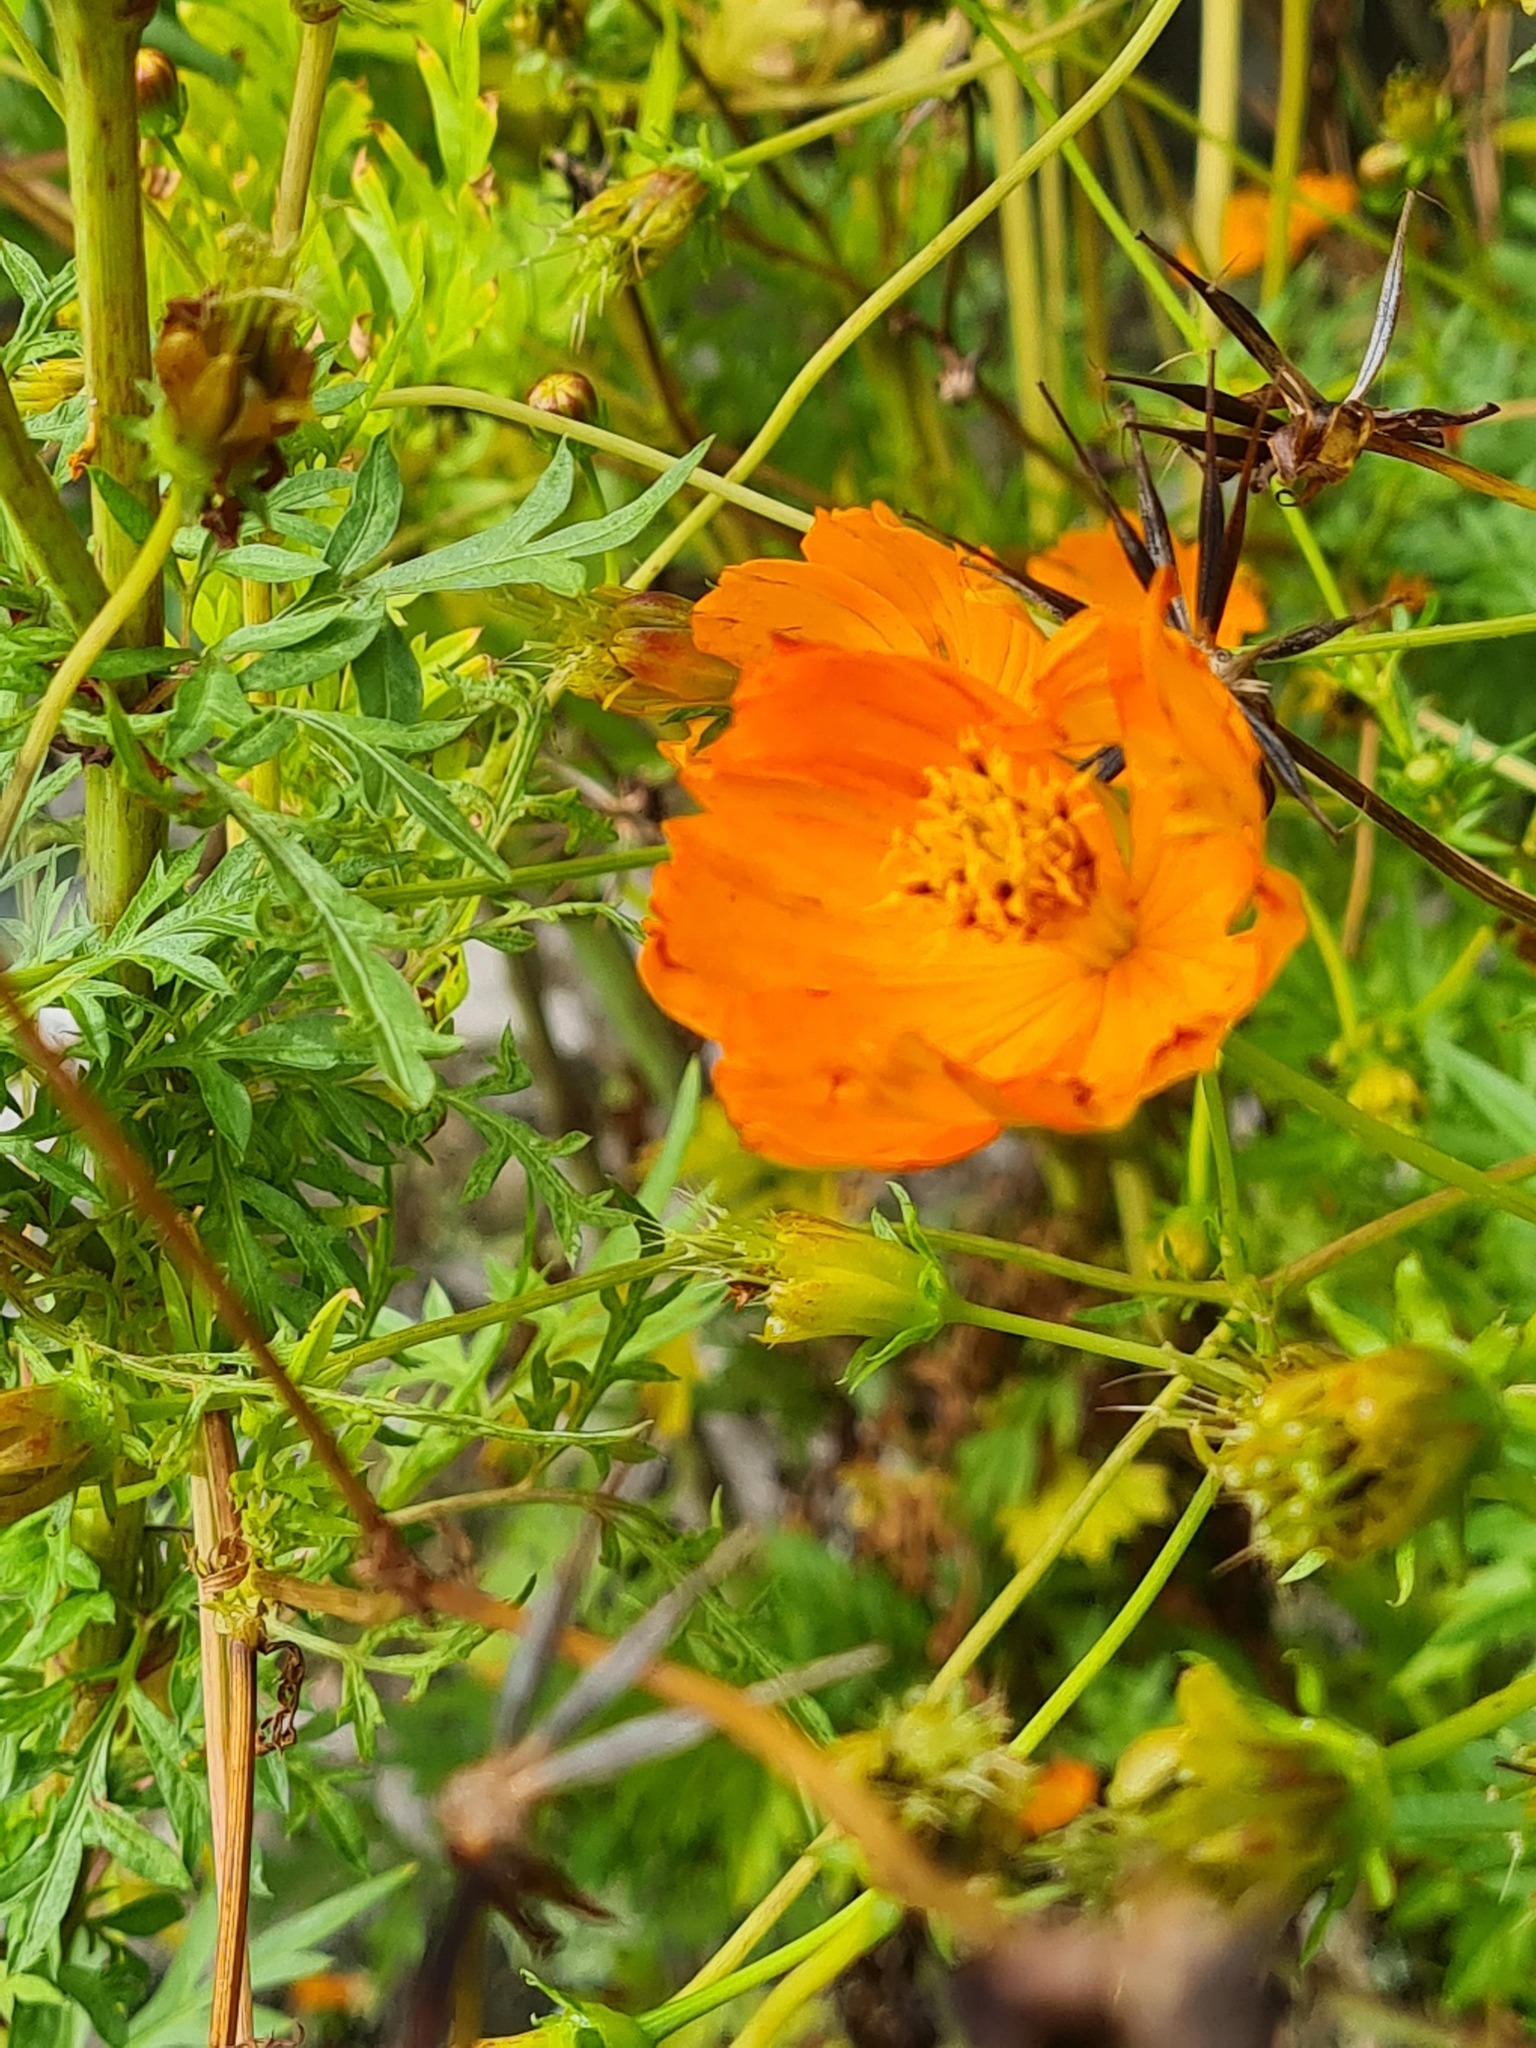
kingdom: Plantae
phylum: Tracheophyta
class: Magnoliopsida
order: Asterales
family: Asteraceae
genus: Cosmos
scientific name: Cosmos sulphureus
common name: Sulphur cosmos
